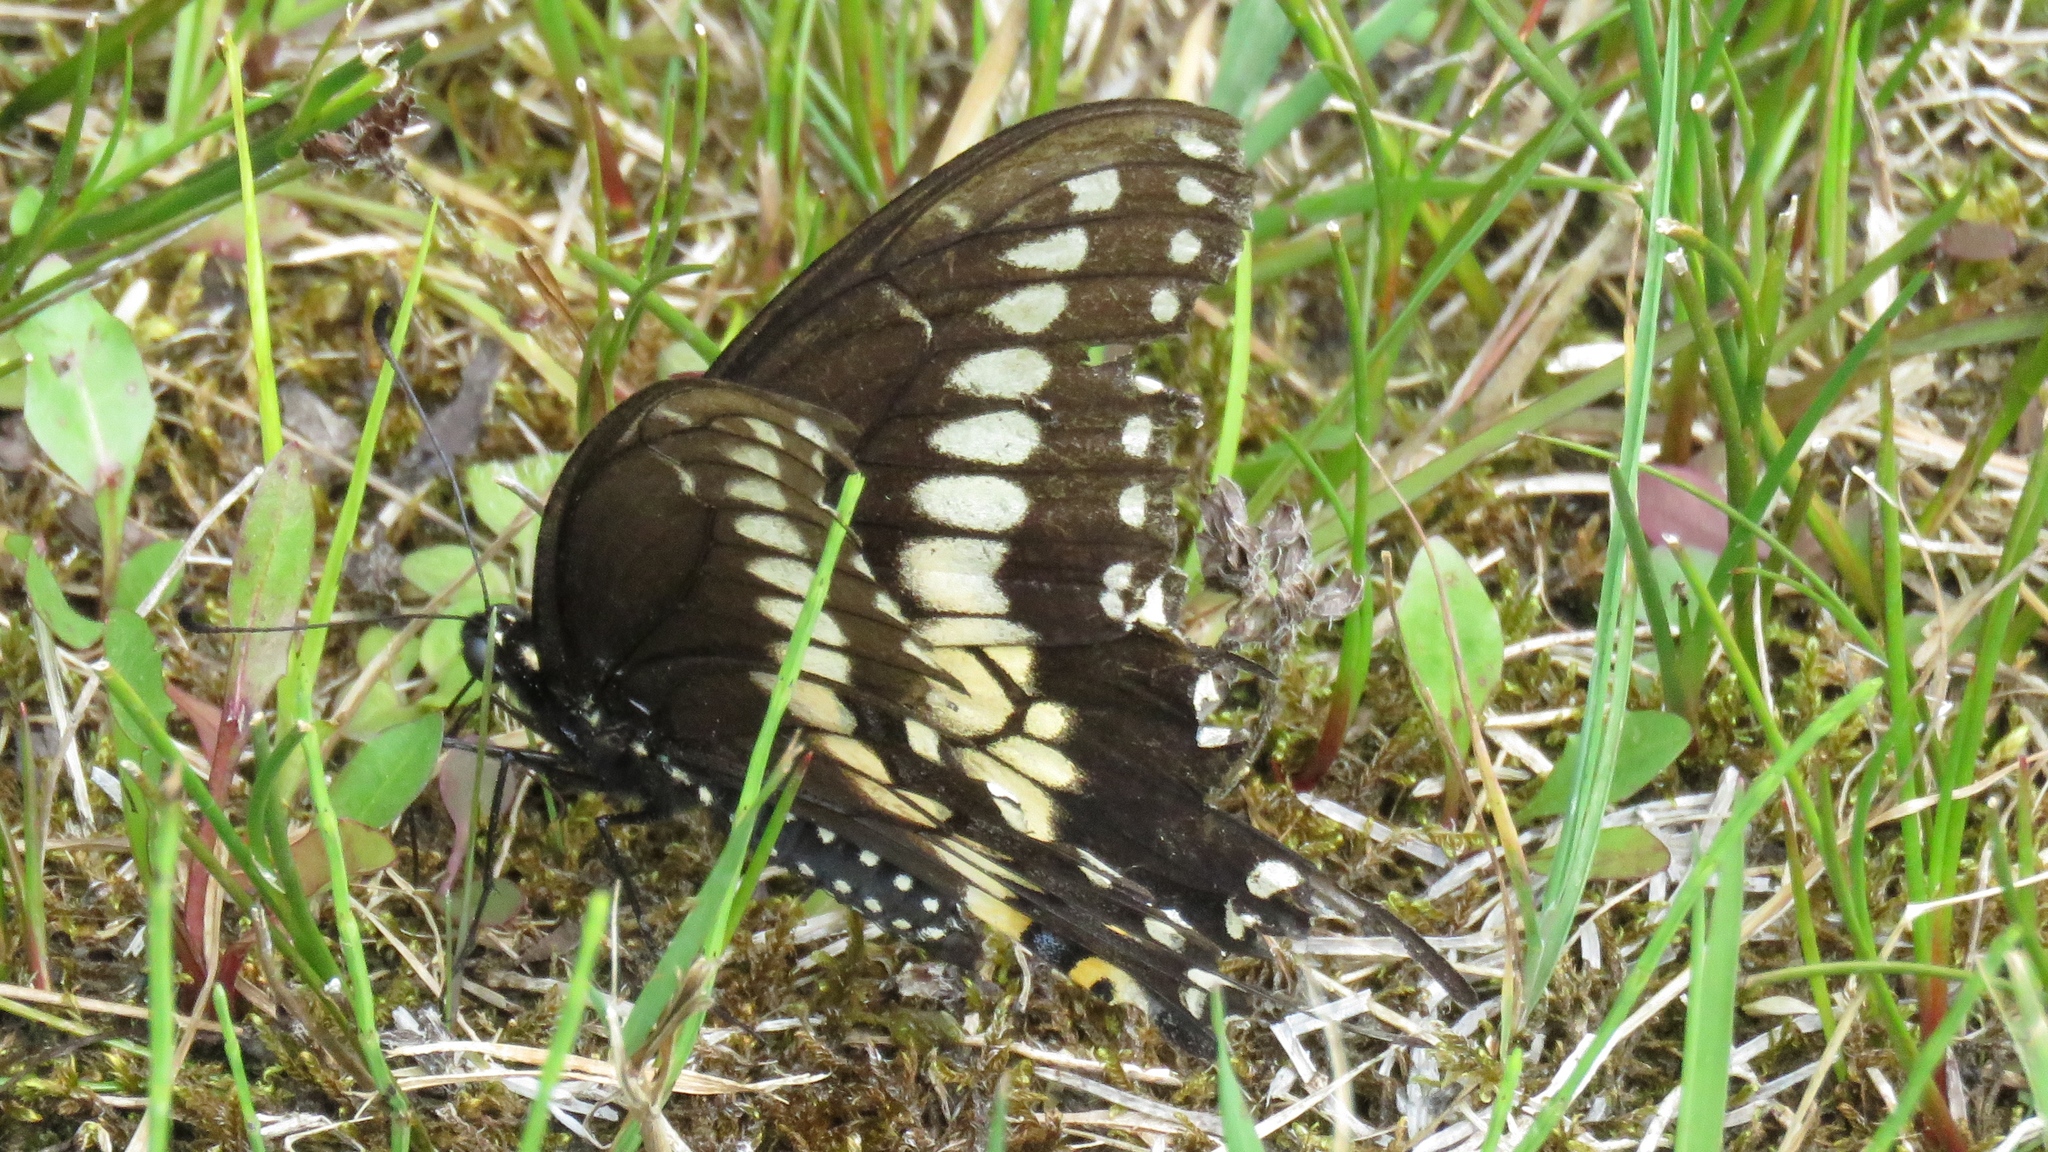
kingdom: Animalia
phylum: Arthropoda
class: Insecta
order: Lepidoptera
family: Papilionidae
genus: Papilio
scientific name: Papilio polyxenes
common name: Black swallowtail
